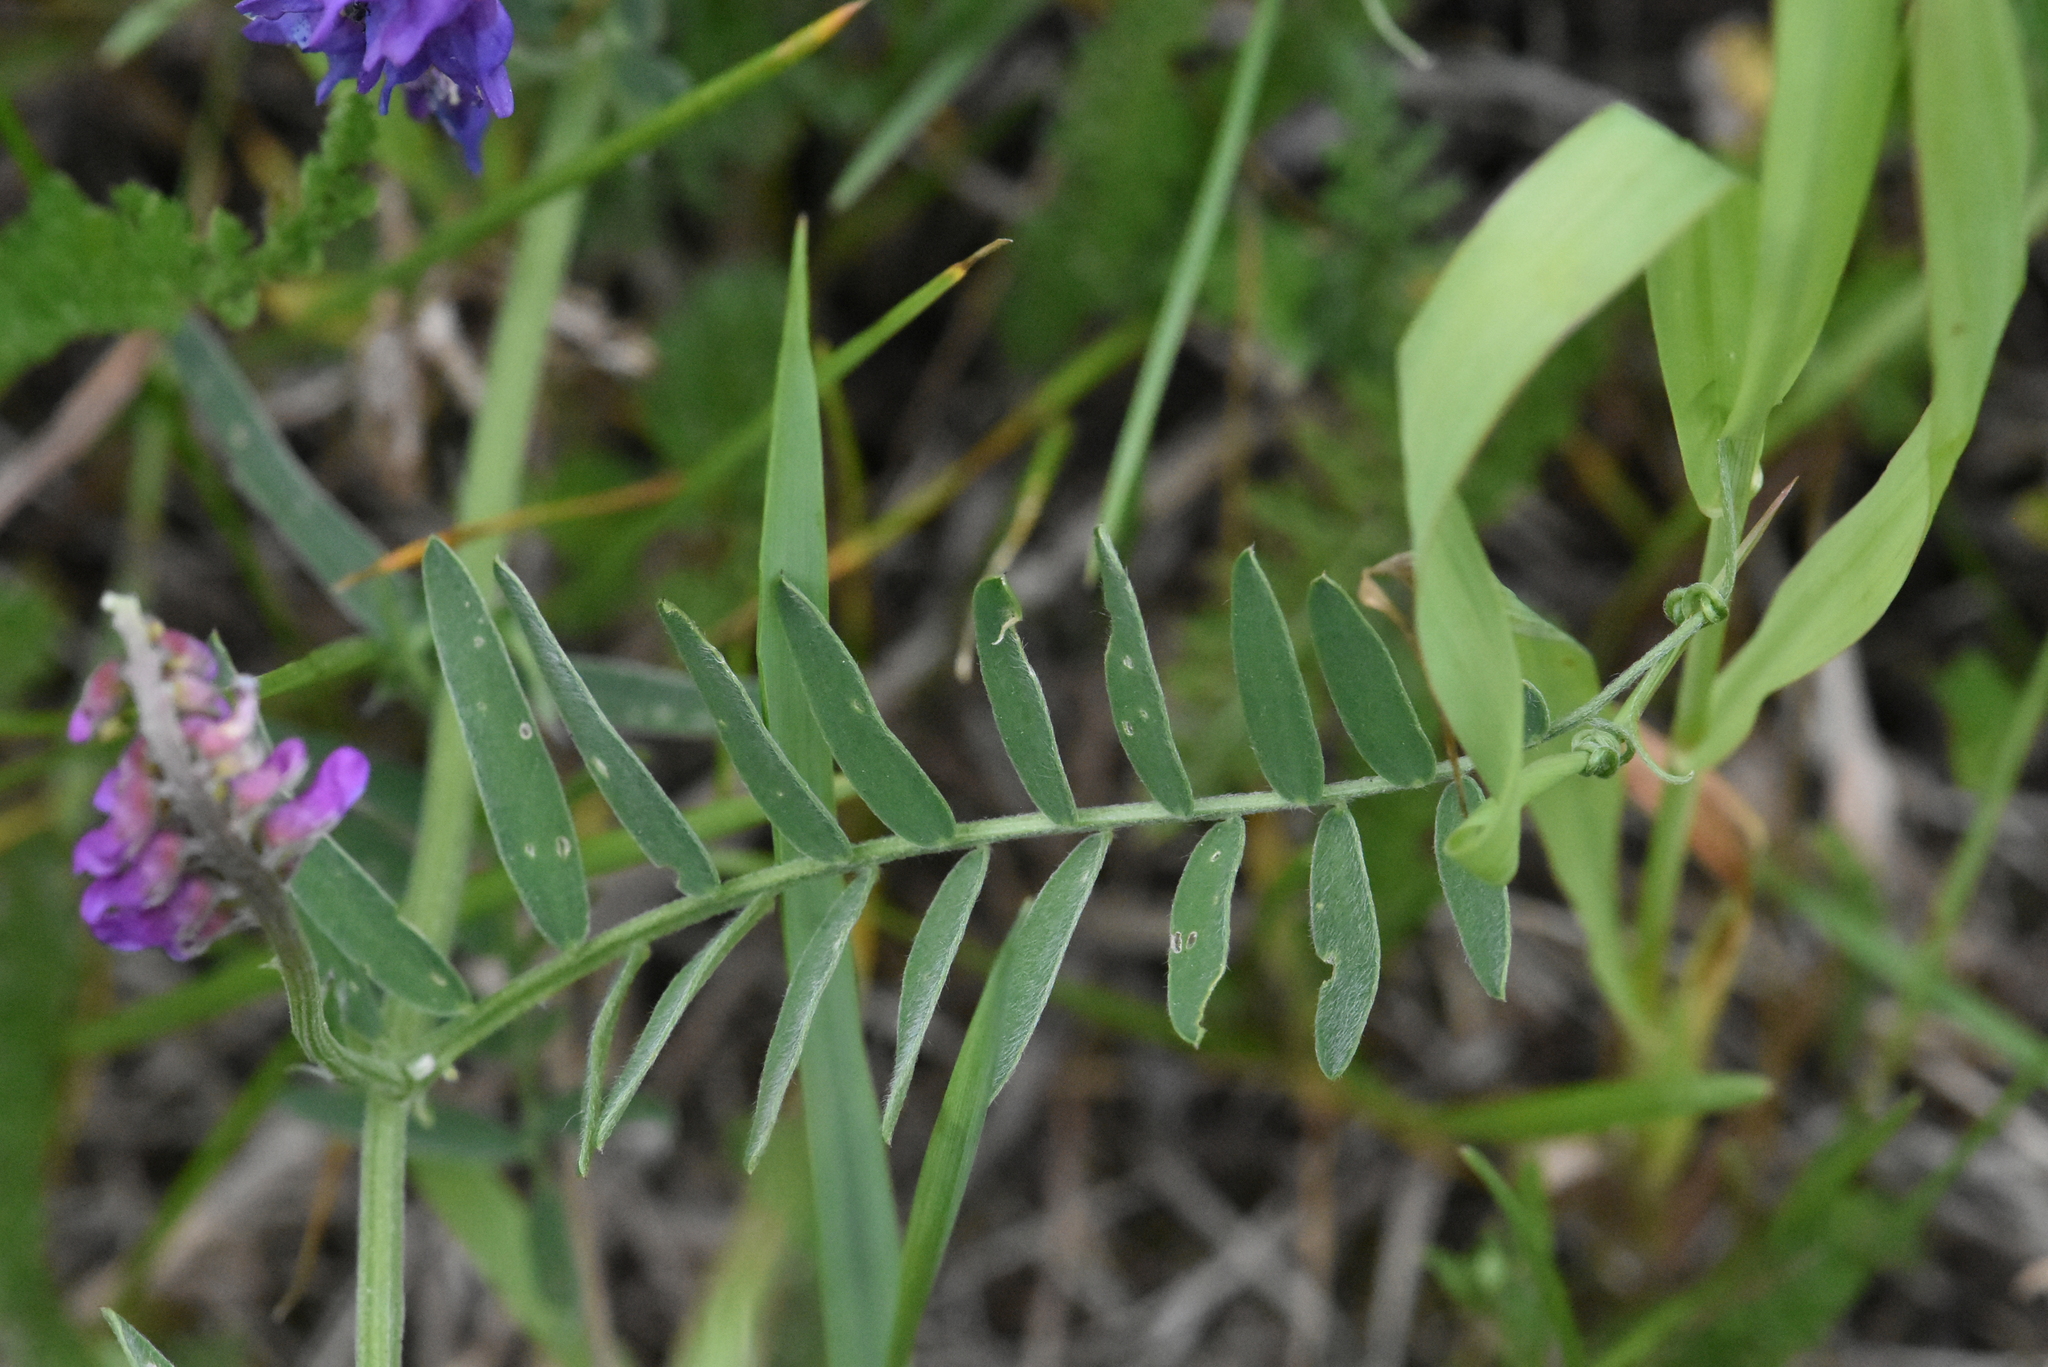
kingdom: Plantae
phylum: Tracheophyta
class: Magnoliopsida
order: Fabales
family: Fabaceae
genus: Vicia
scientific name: Vicia cracca
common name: Bird vetch
